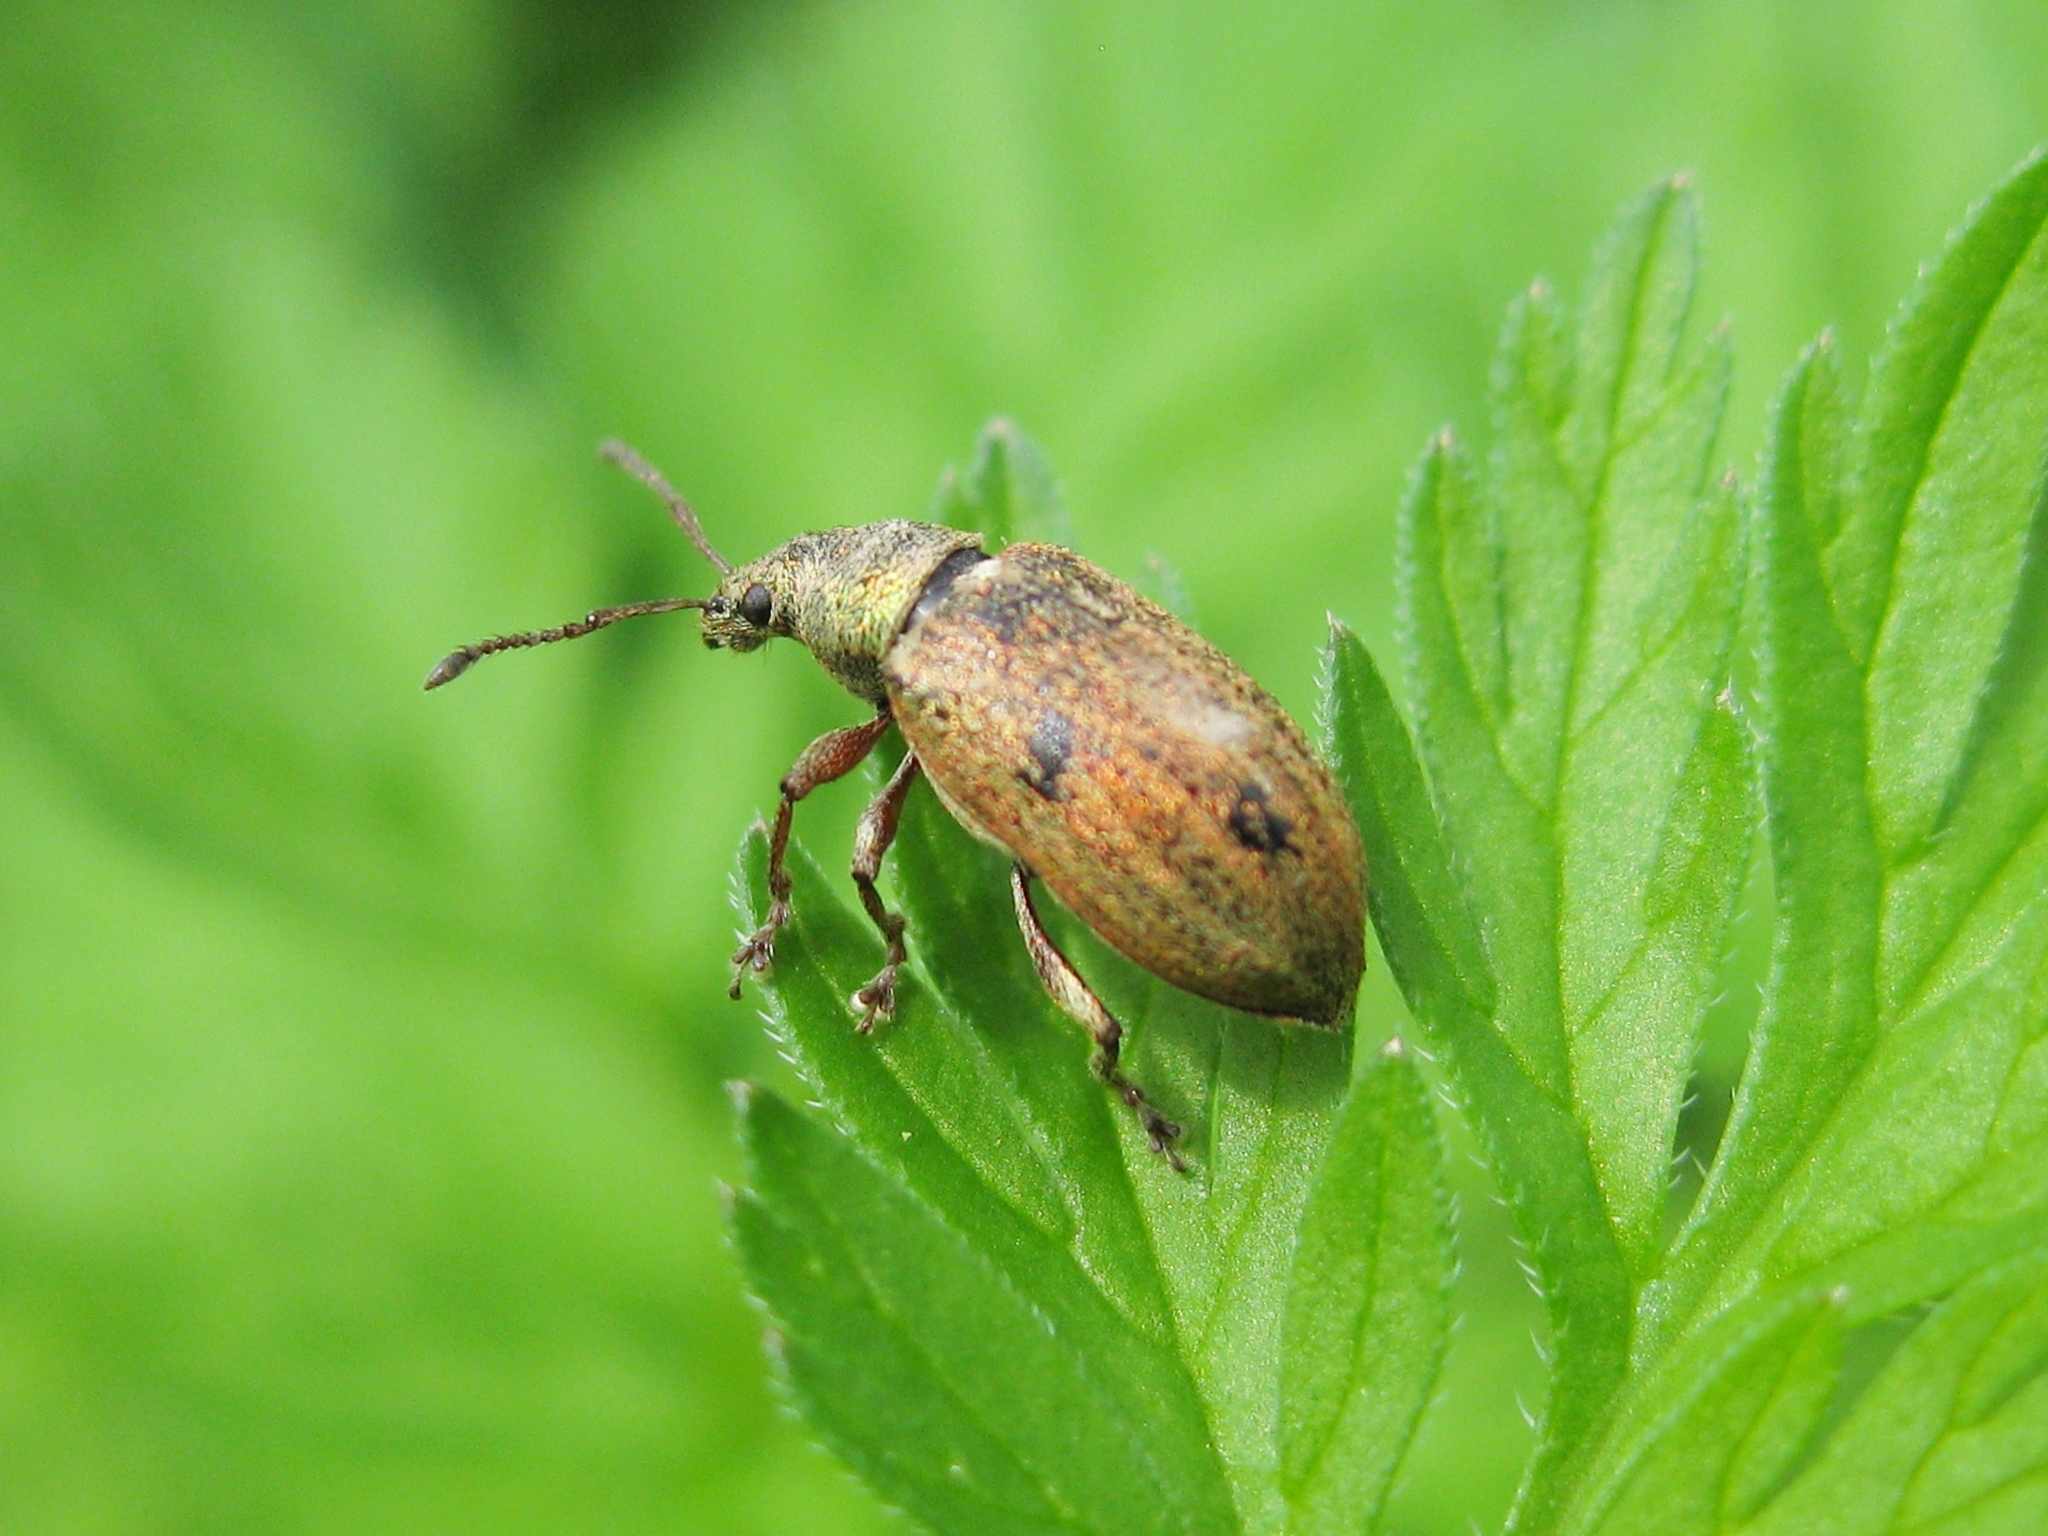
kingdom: Animalia
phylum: Arthropoda
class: Insecta
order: Coleoptera
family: Curculionidae
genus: Phyllobius
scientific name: Phyllobius pyri
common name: Common leaf weevil
